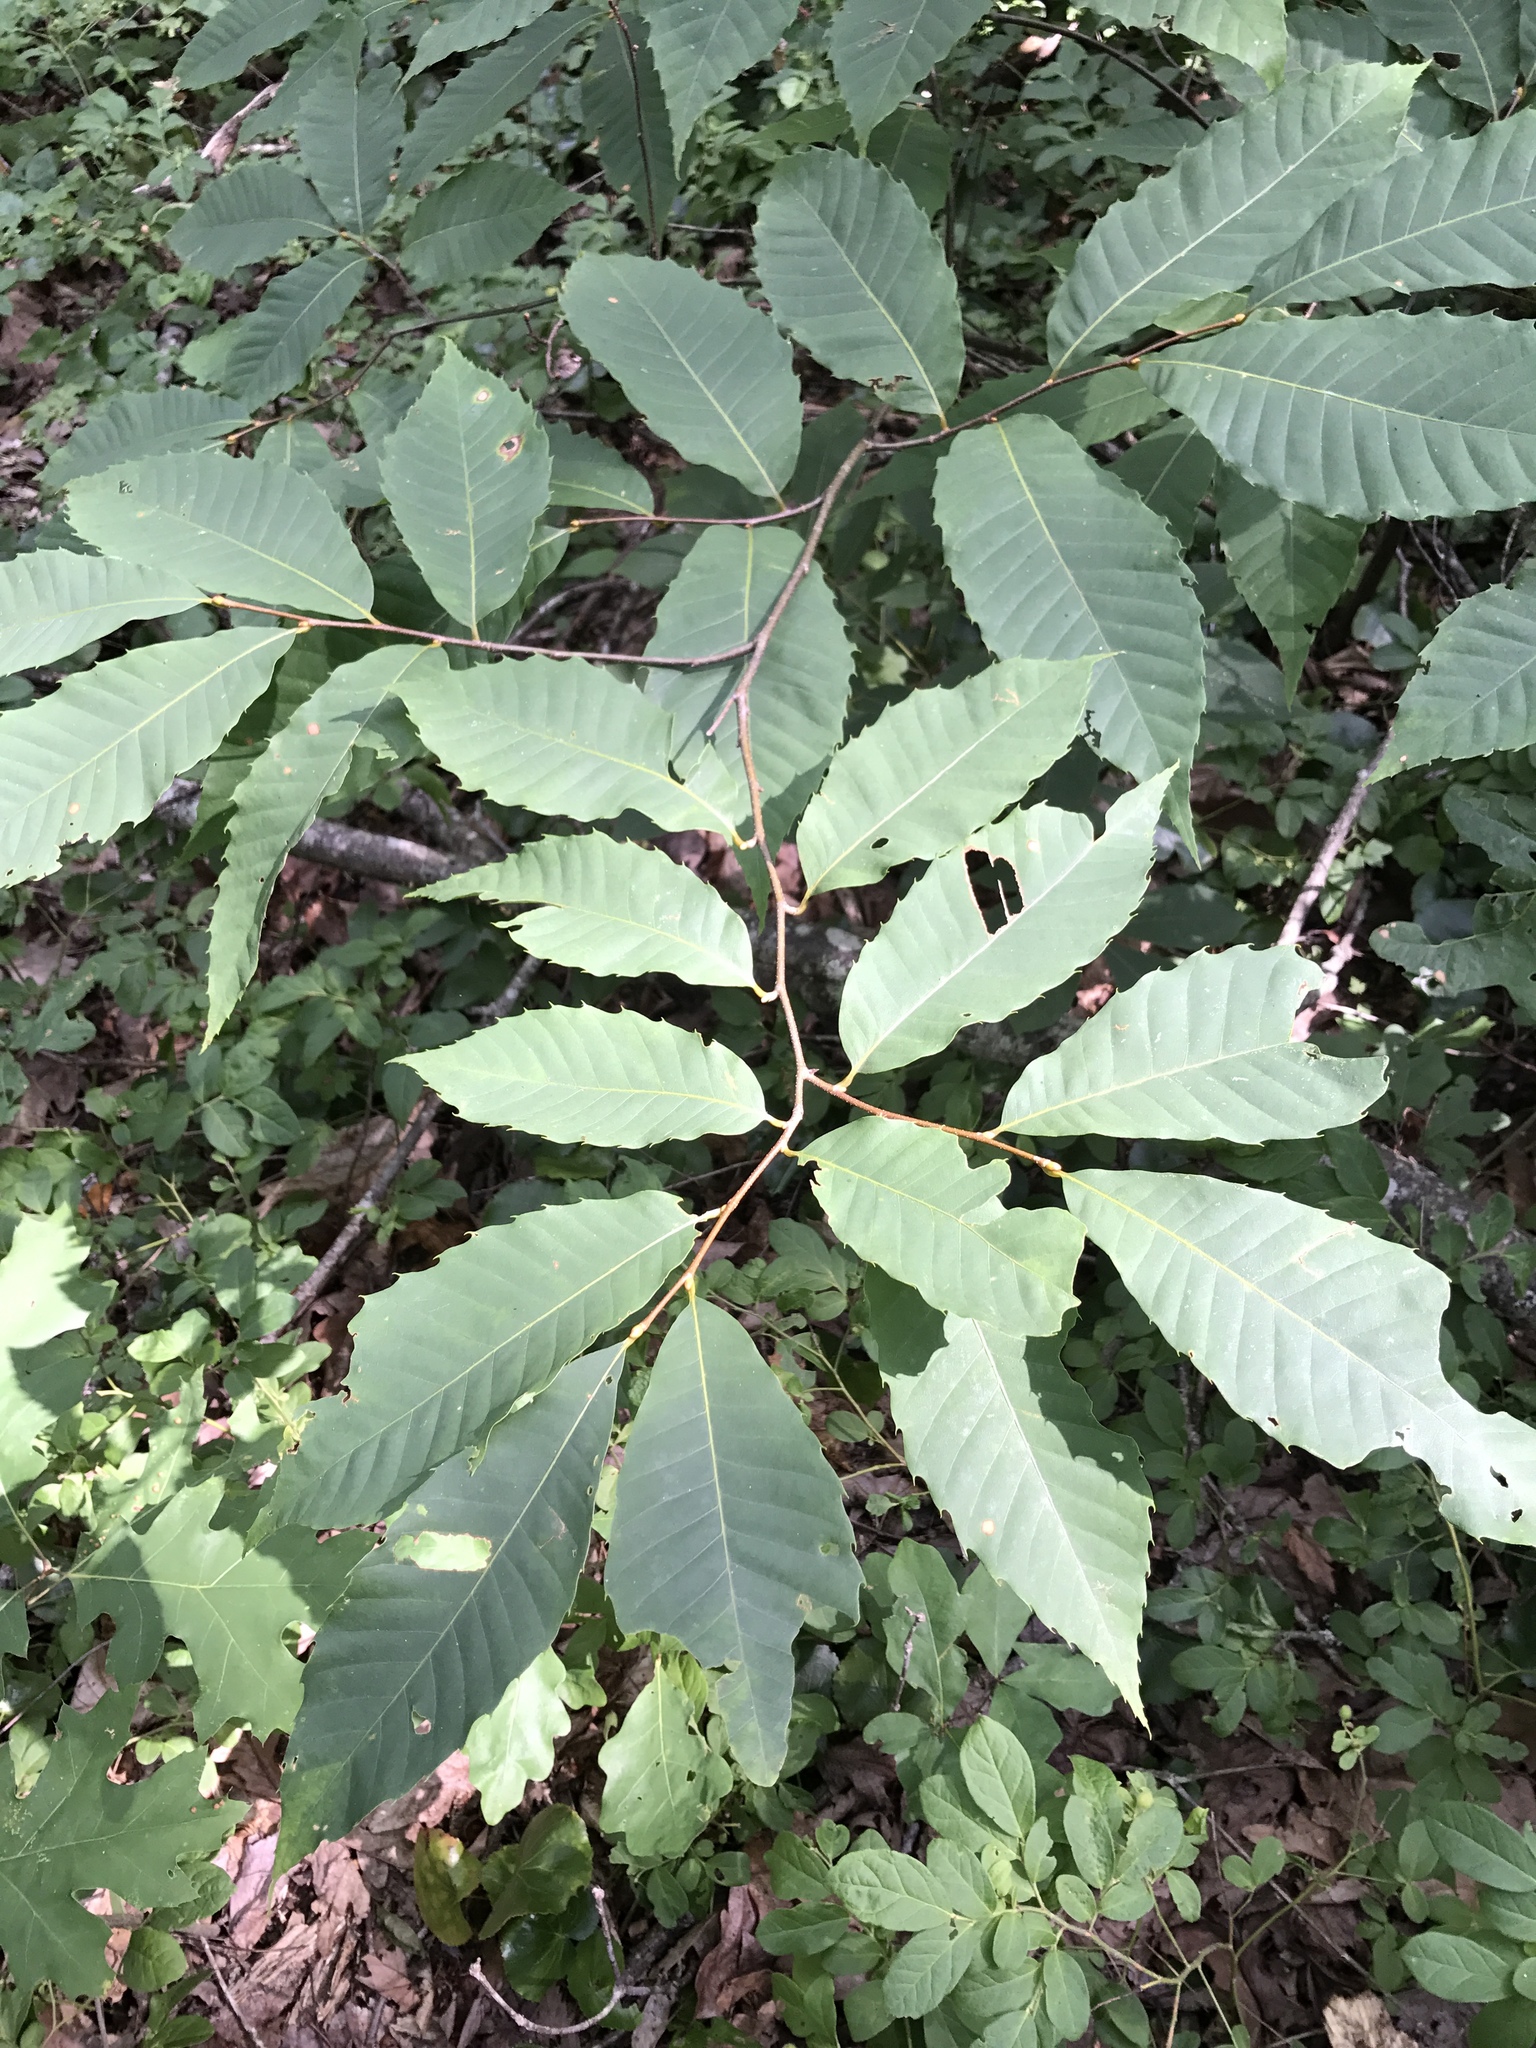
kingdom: Plantae
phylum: Tracheophyta
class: Magnoliopsida
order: Fagales
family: Fagaceae
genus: Castanea
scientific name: Castanea dentata
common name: American chestnut
